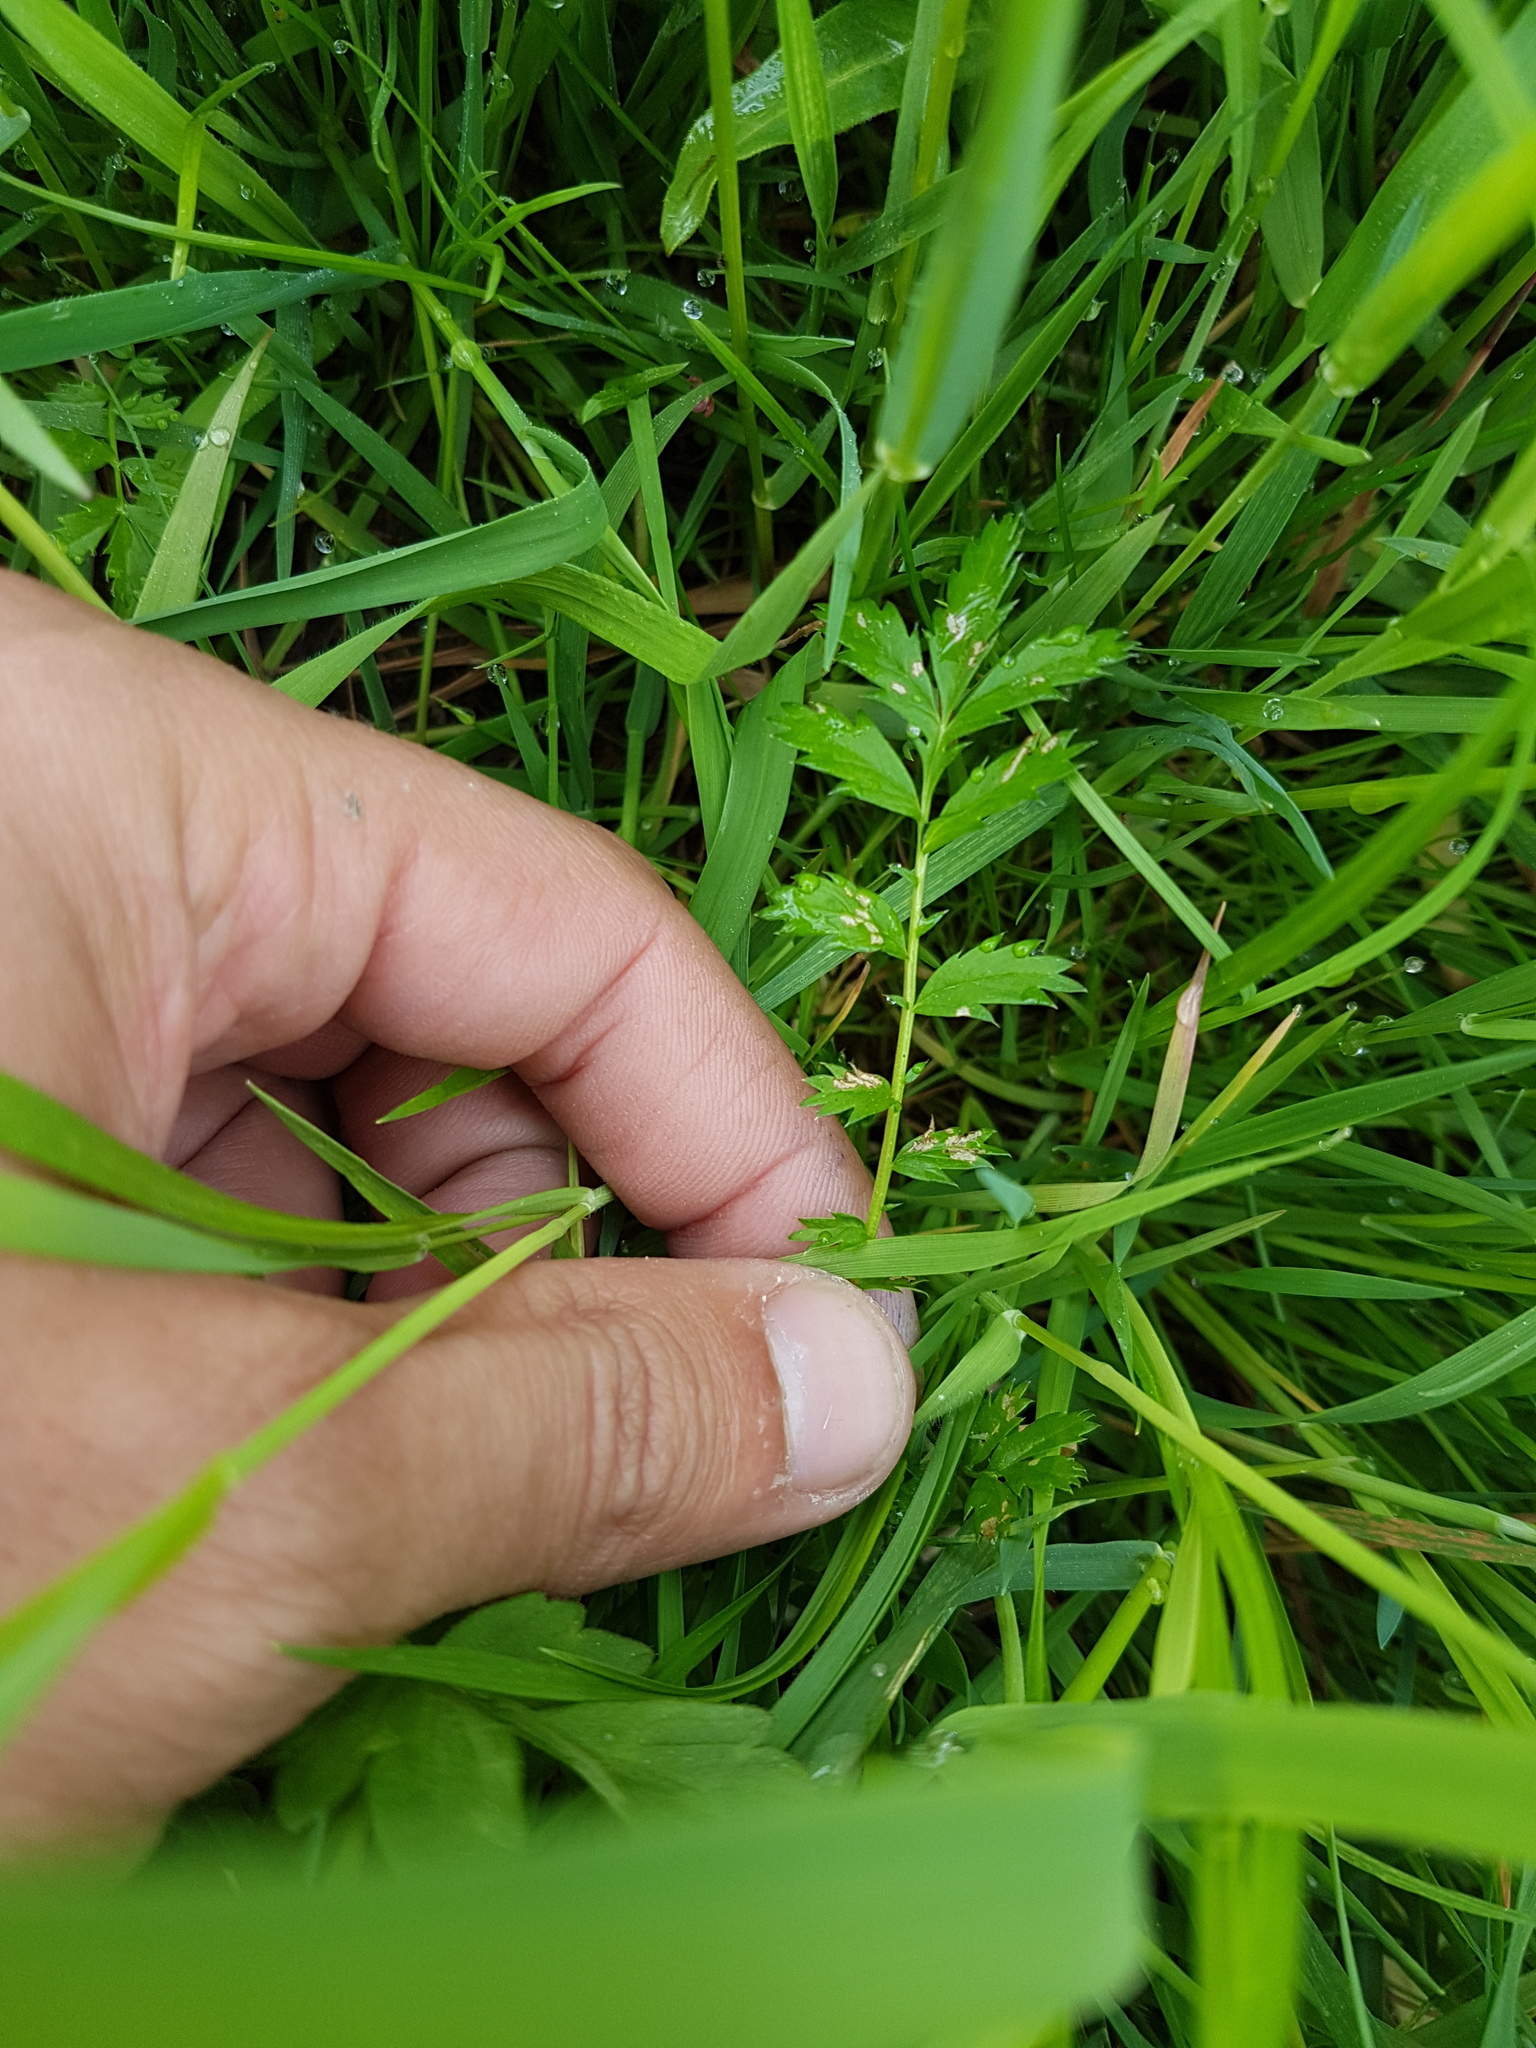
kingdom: Plantae
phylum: Tracheophyta
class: Magnoliopsida
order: Rosales
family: Rosaceae
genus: Argentina
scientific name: Argentina anserina
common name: Common silverweed
